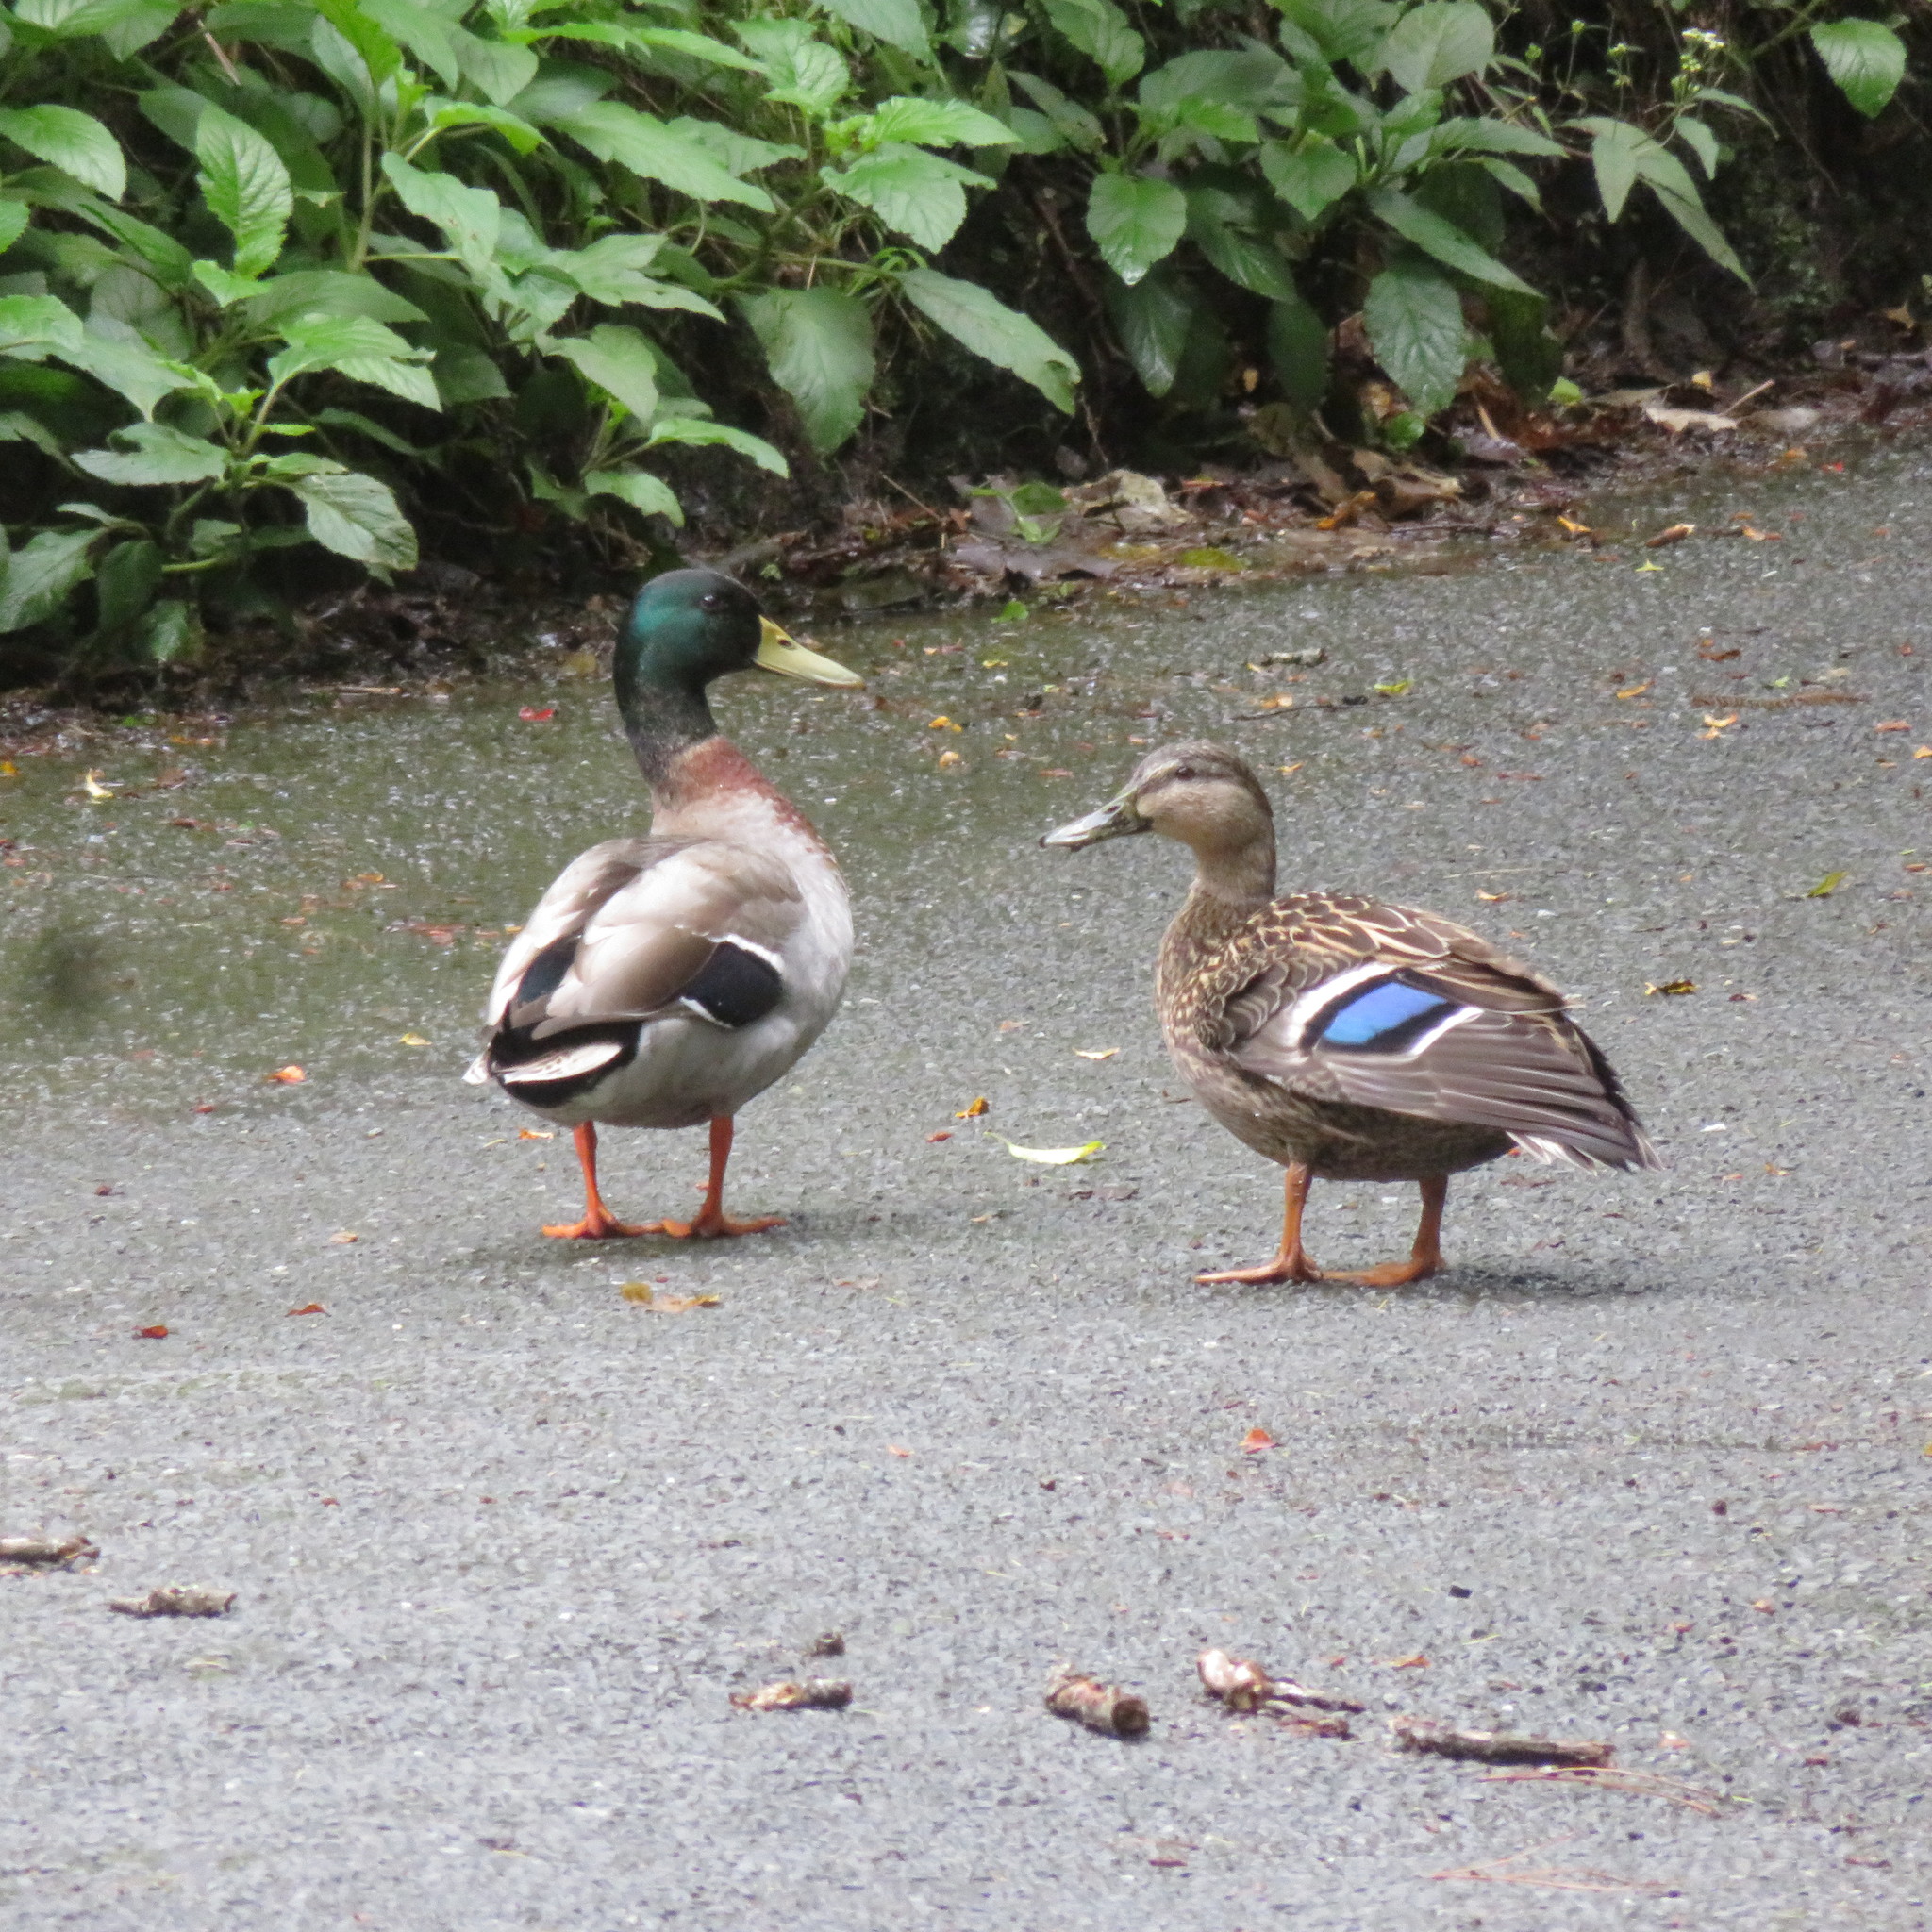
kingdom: Animalia
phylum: Chordata
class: Aves
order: Anseriformes
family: Anatidae
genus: Anas
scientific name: Anas platyrhynchos
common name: Mallard
